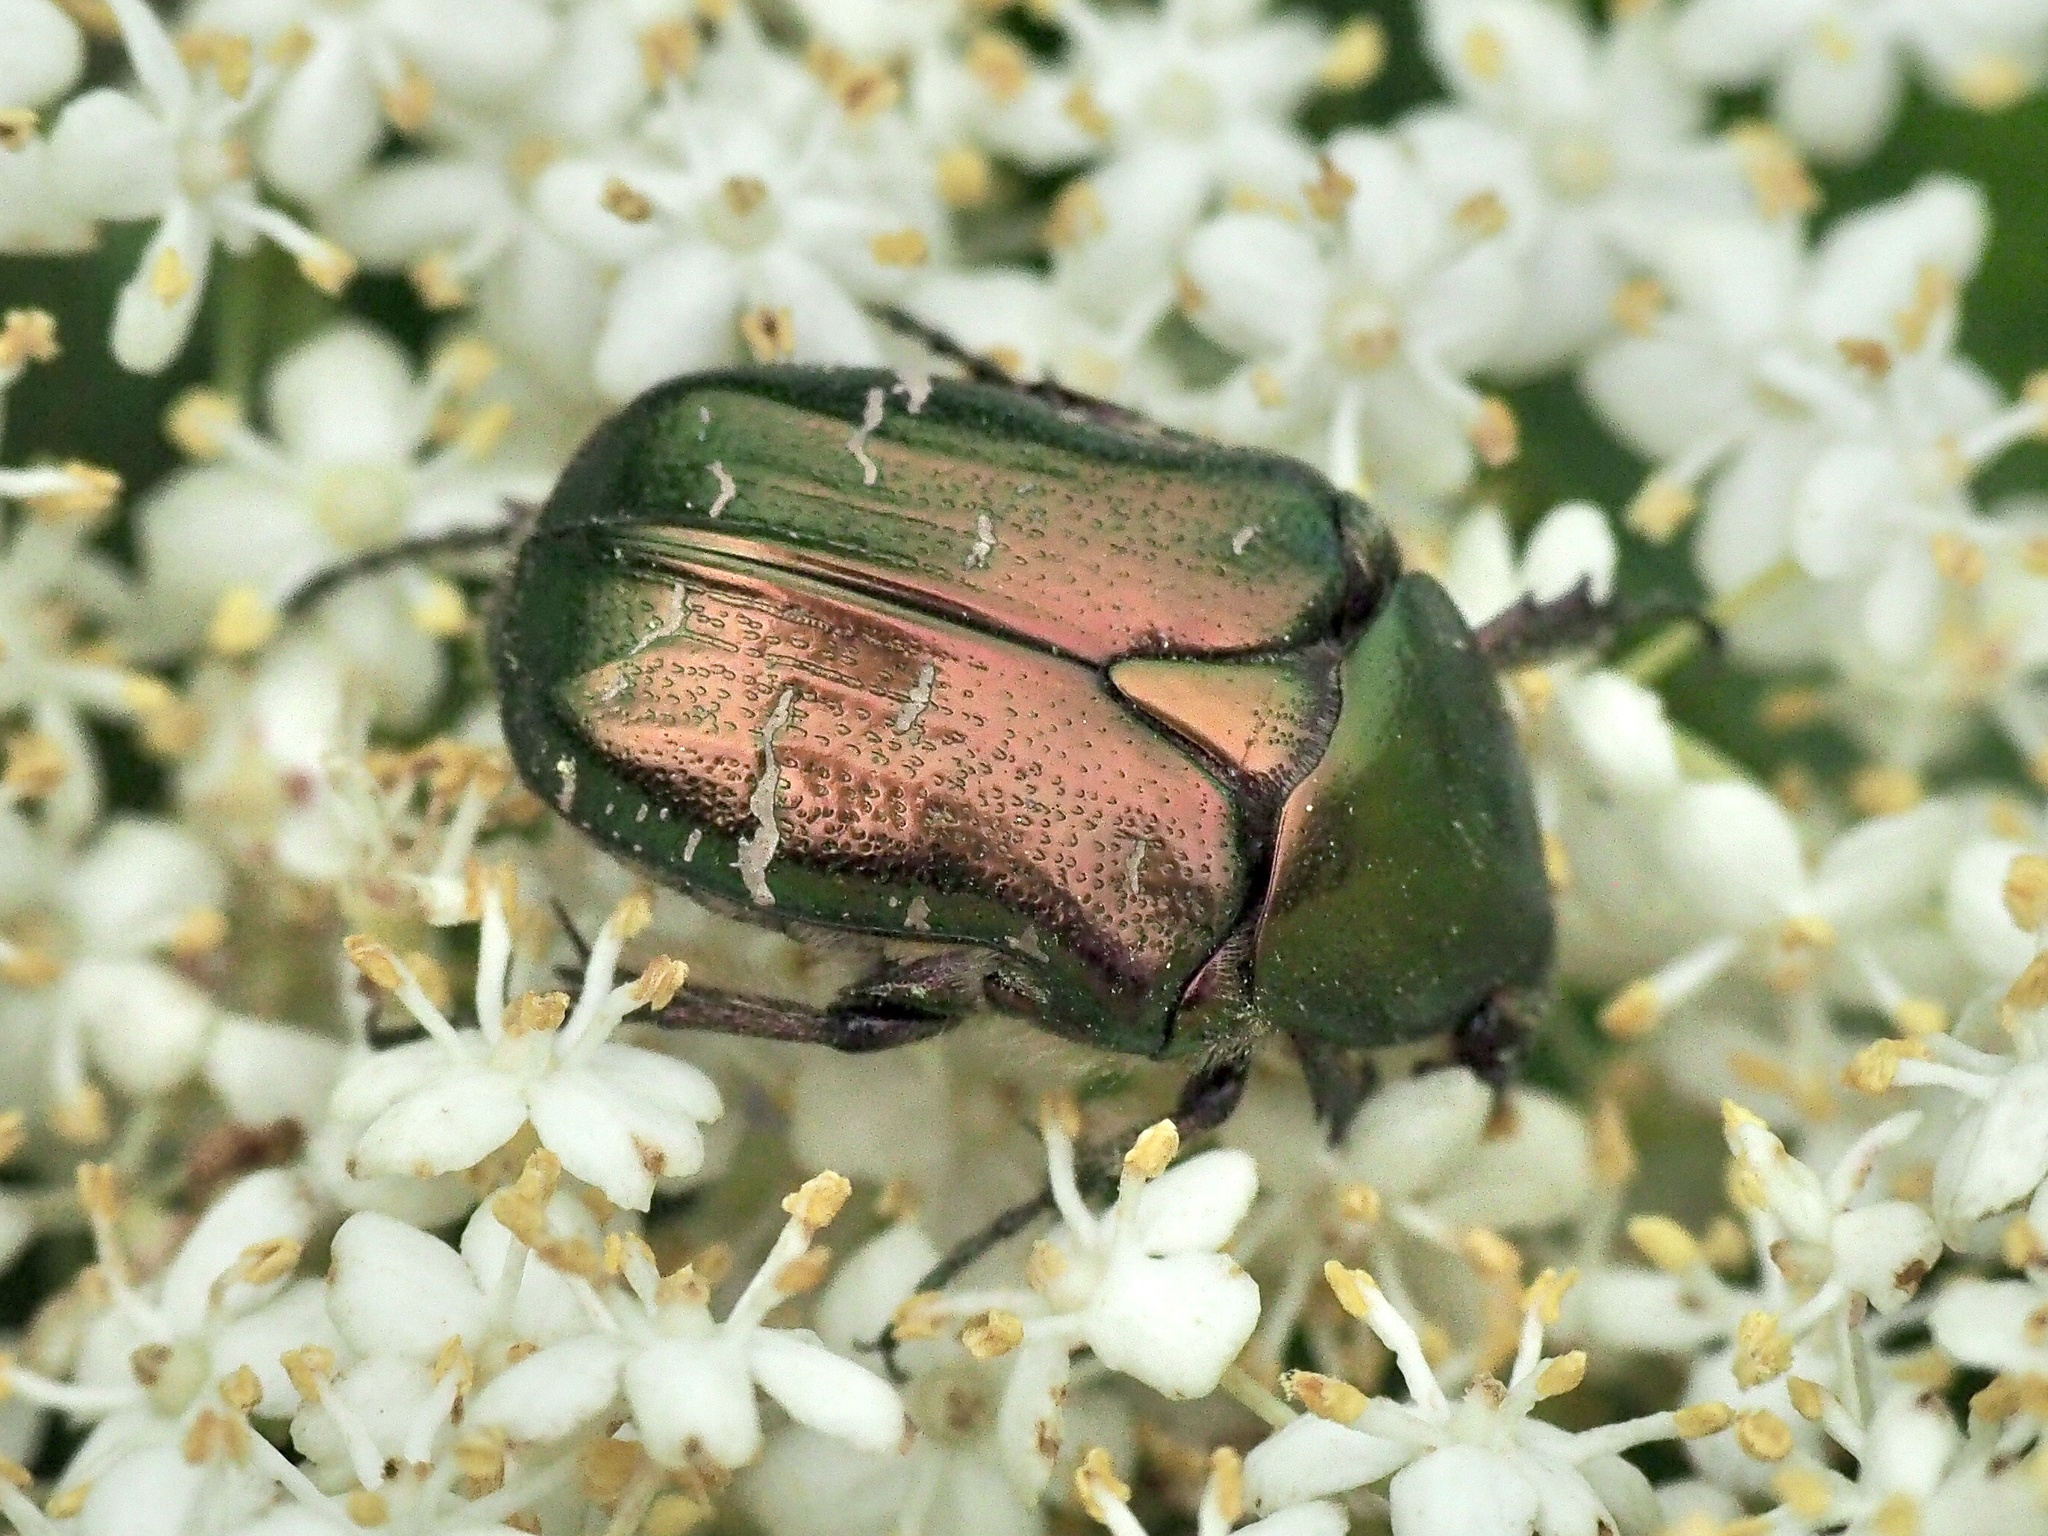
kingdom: Animalia
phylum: Arthropoda
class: Insecta
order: Coleoptera
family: Scarabaeidae
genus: Cetonia
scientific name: Cetonia aurata
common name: Rose chafer
